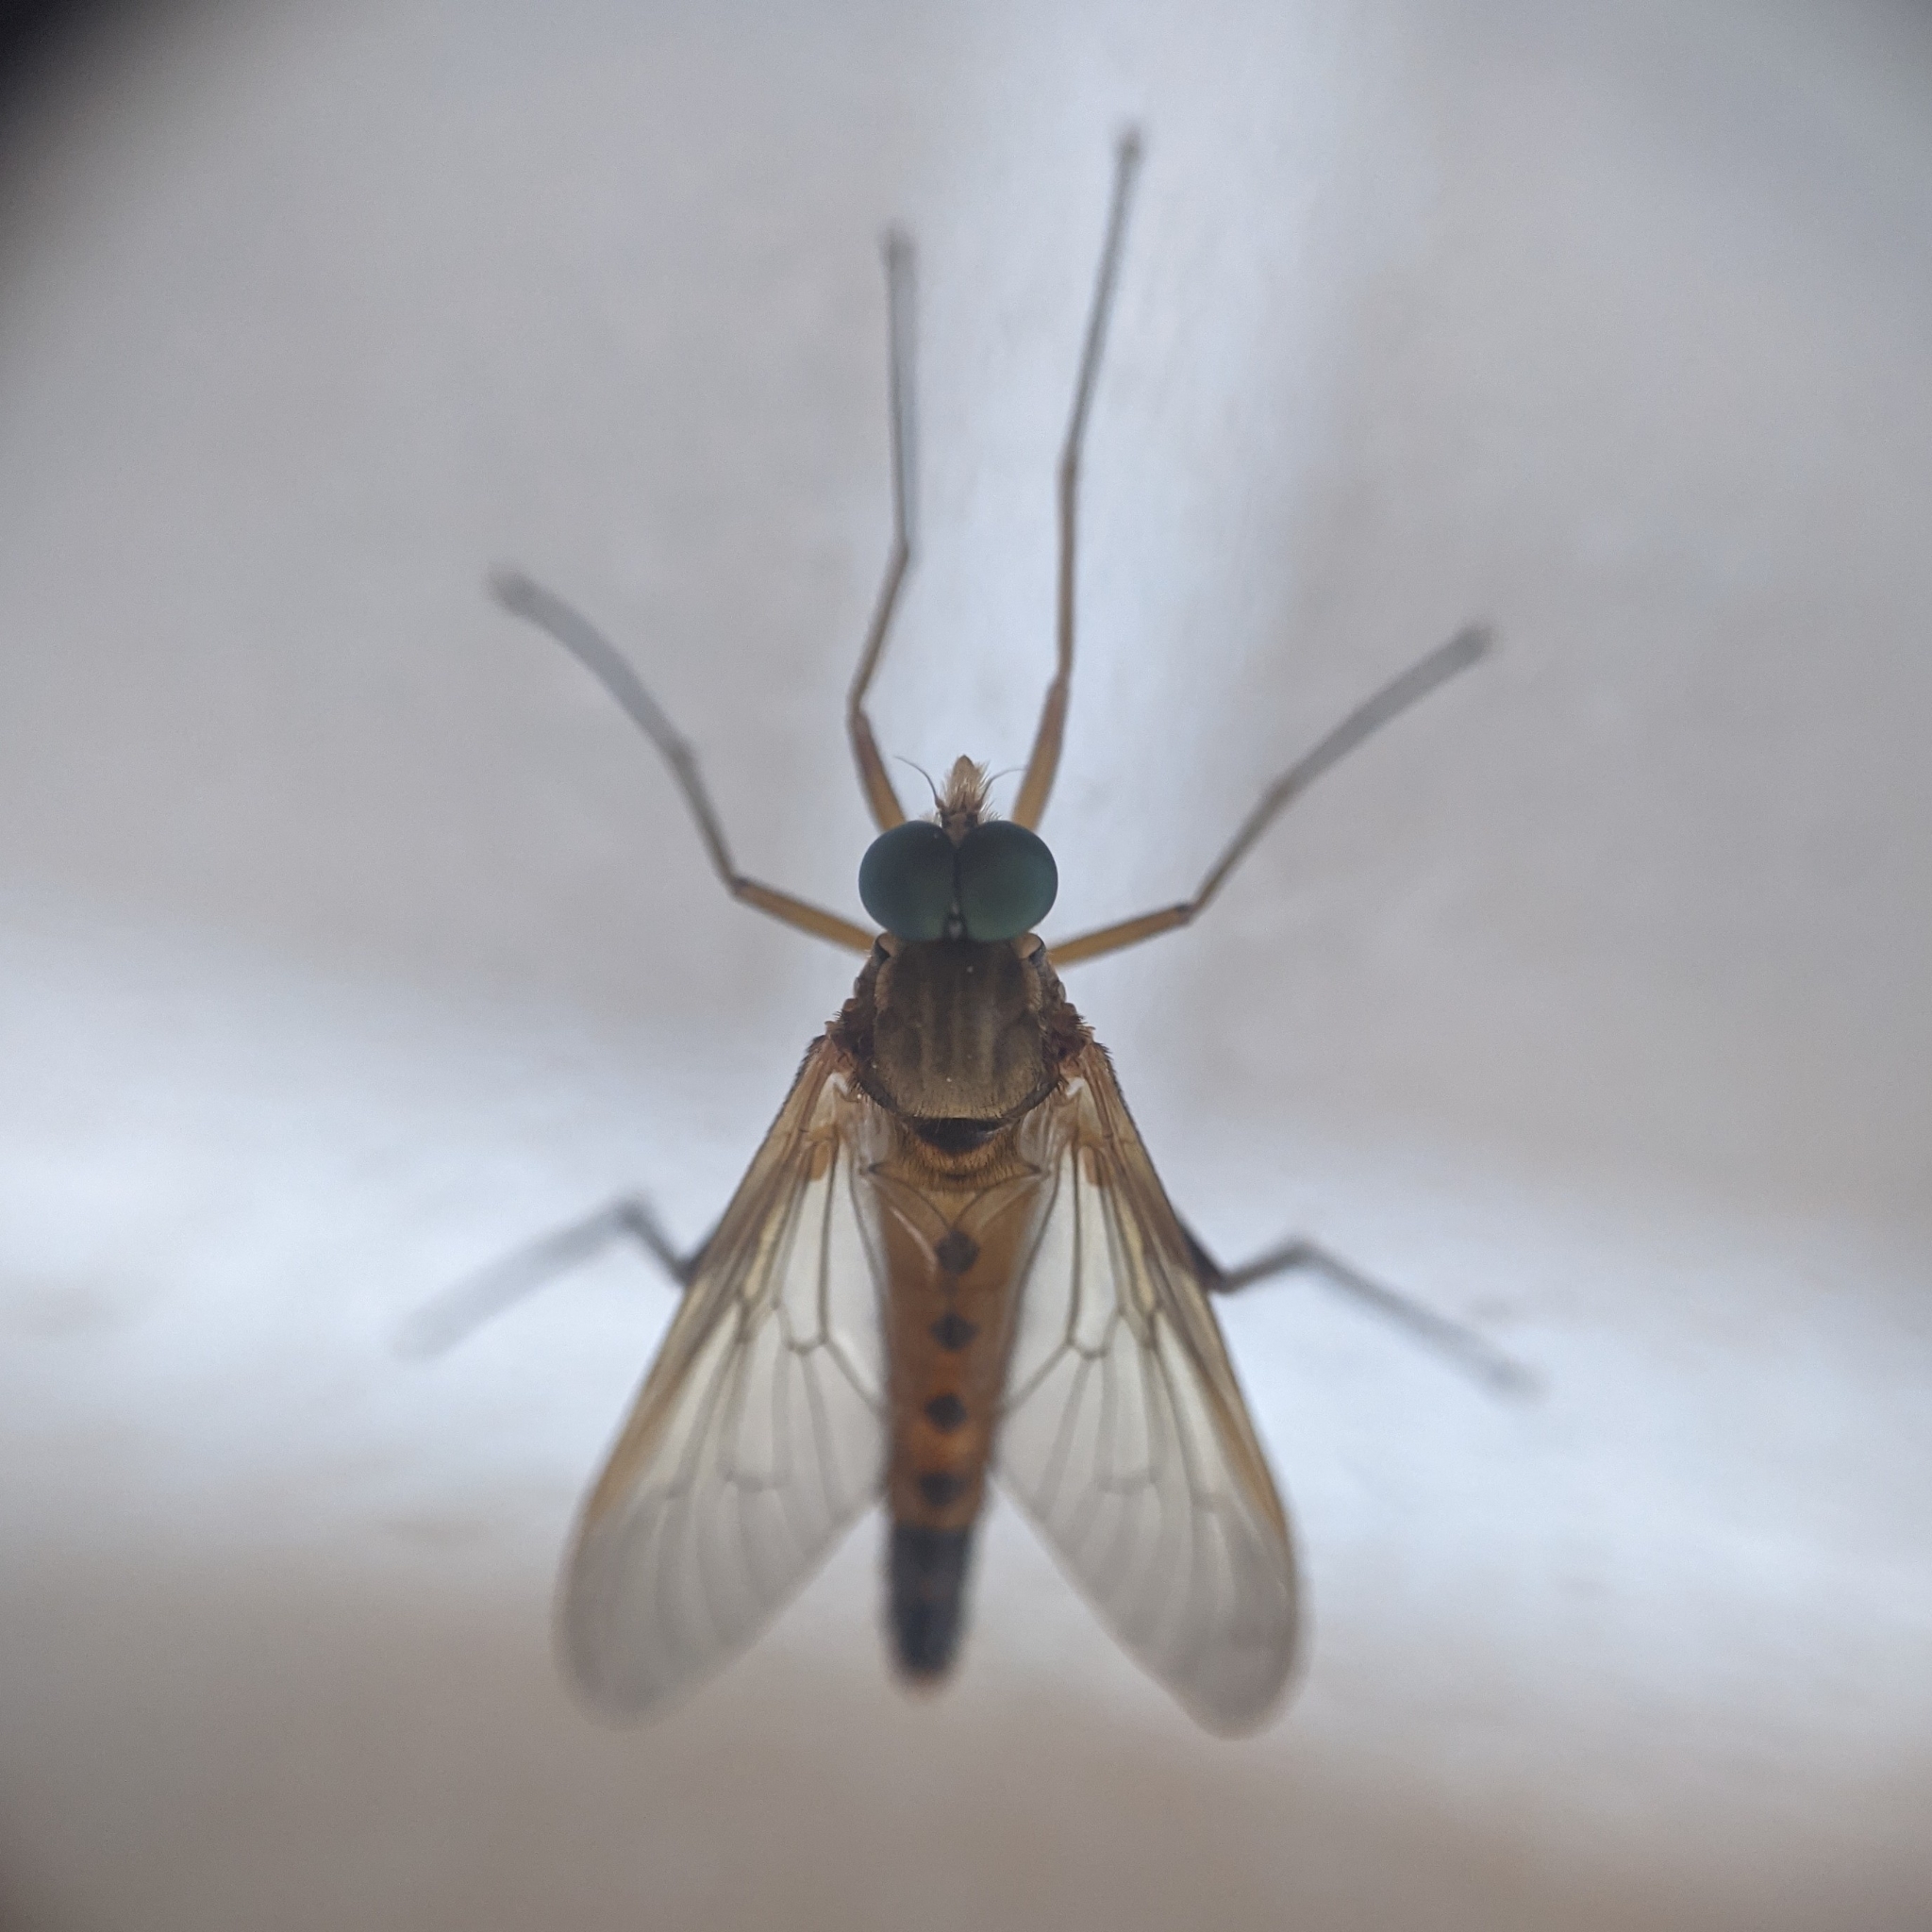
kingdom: Animalia
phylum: Arthropoda
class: Insecta
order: Diptera
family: Rhagionidae
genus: Rhagio
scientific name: Rhagio tringaria
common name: Marsh snipefly
